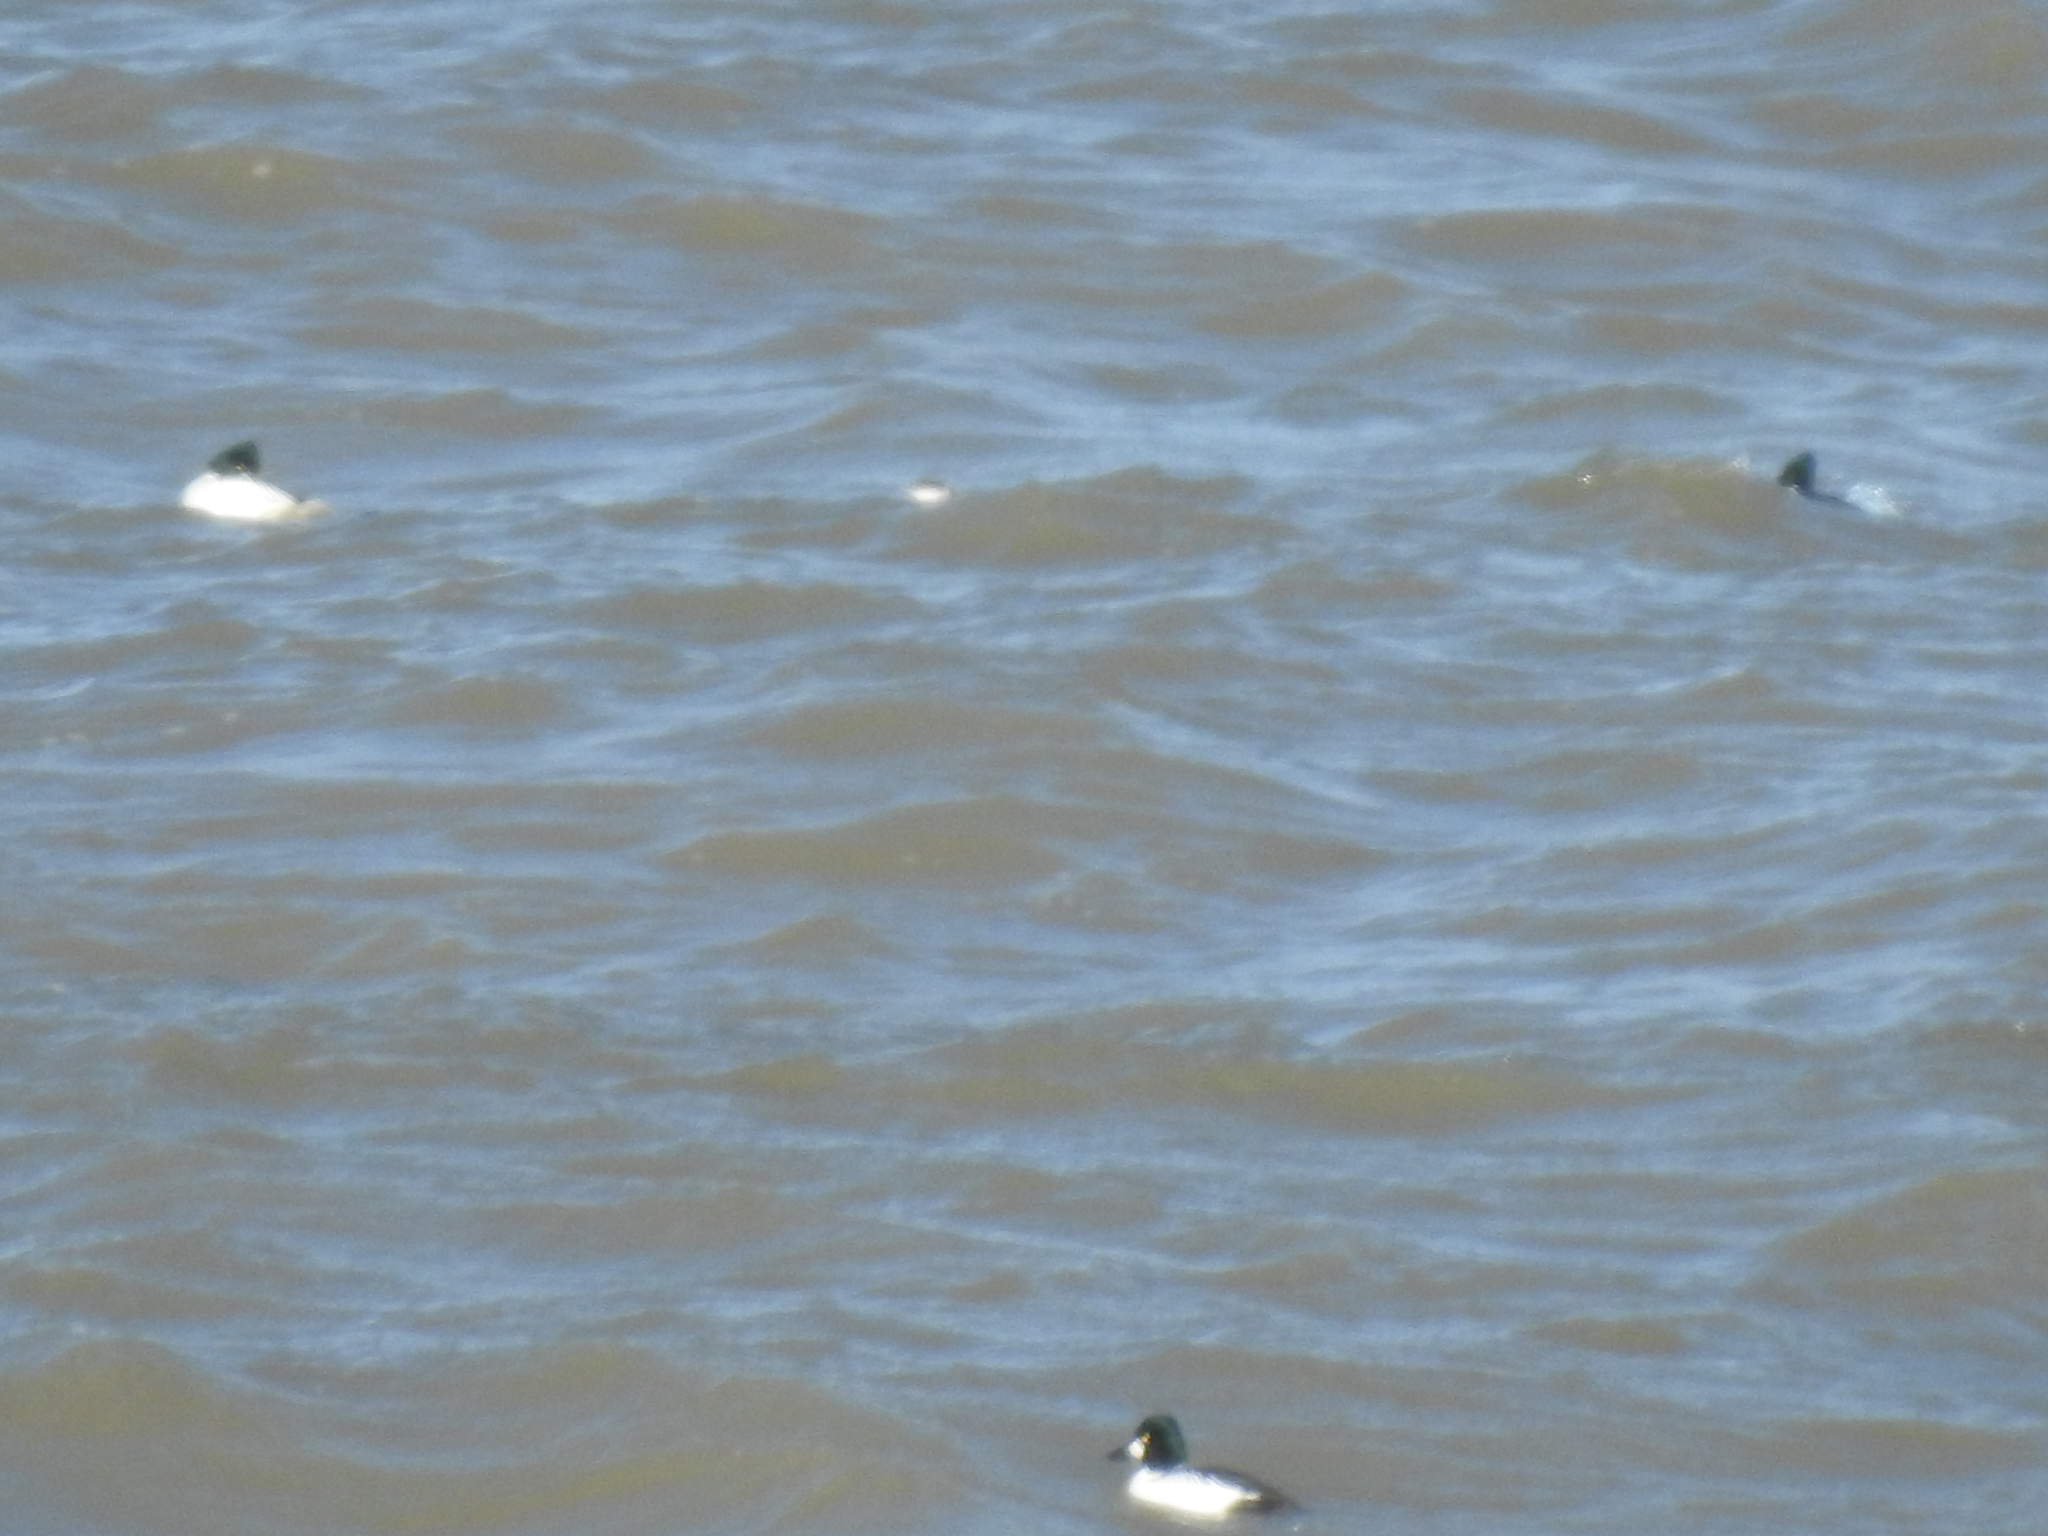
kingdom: Animalia
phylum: Chordata
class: Aves
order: Anseriformes
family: Anatidae
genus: Bucephala
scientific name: Bucephala clangula
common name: Common goldeneye
